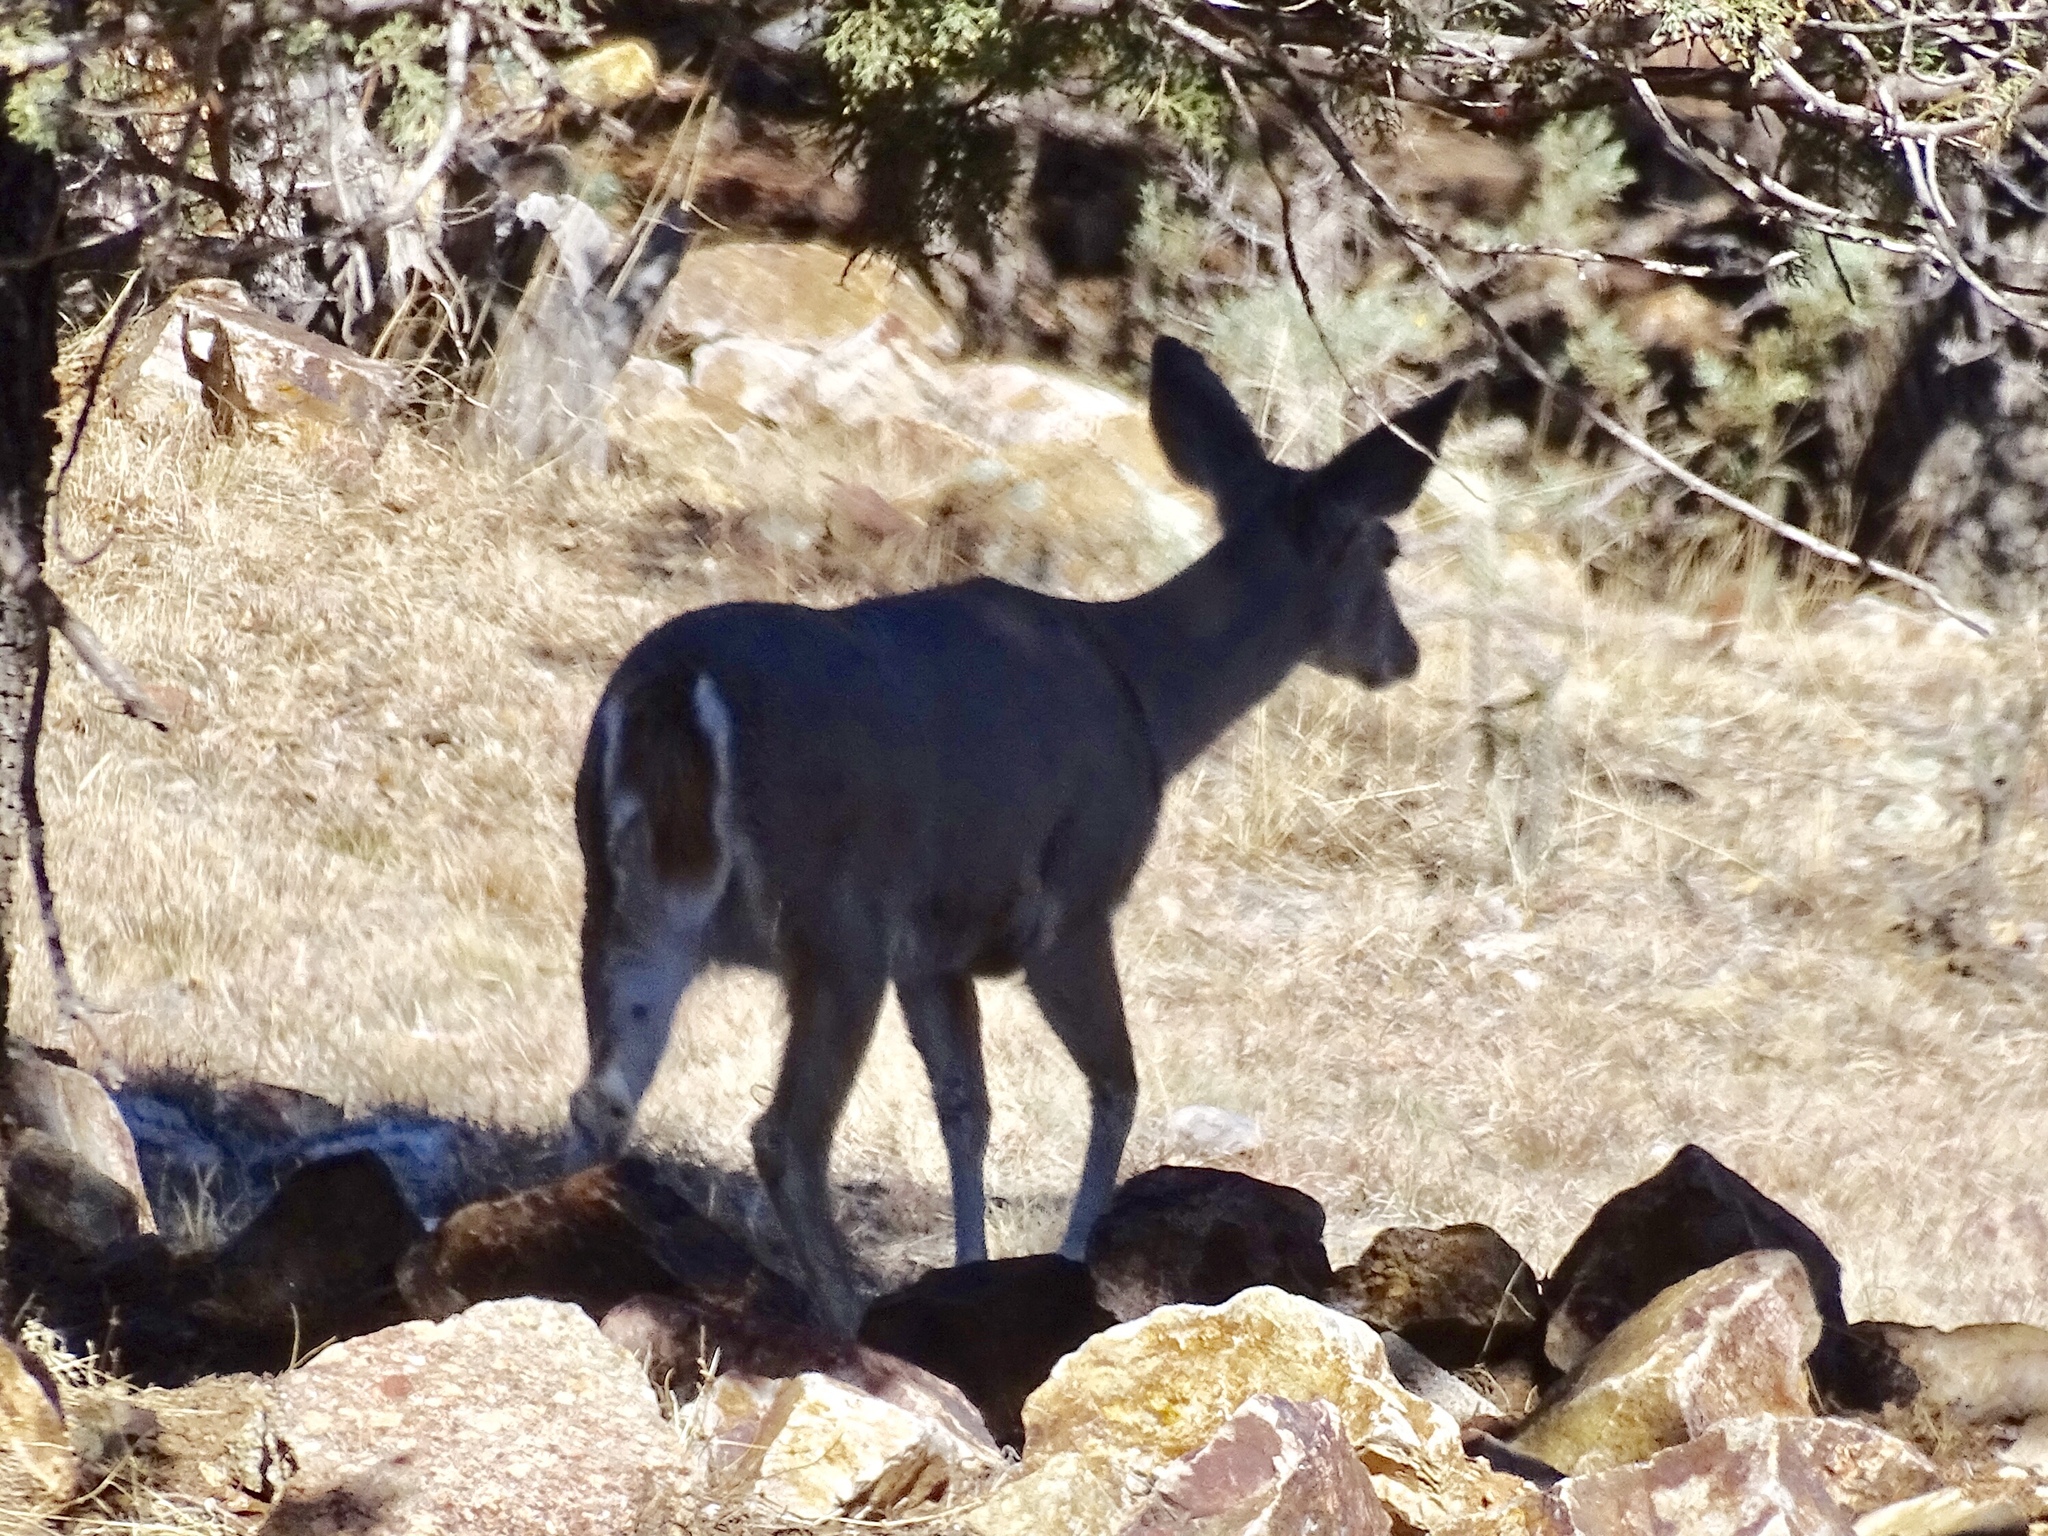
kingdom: Animalia
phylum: Chordata
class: Mammalia
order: Artiodactyla
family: Cervidae
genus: Odocoileus
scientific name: Odocoileus virginianus
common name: White-tailed deer
